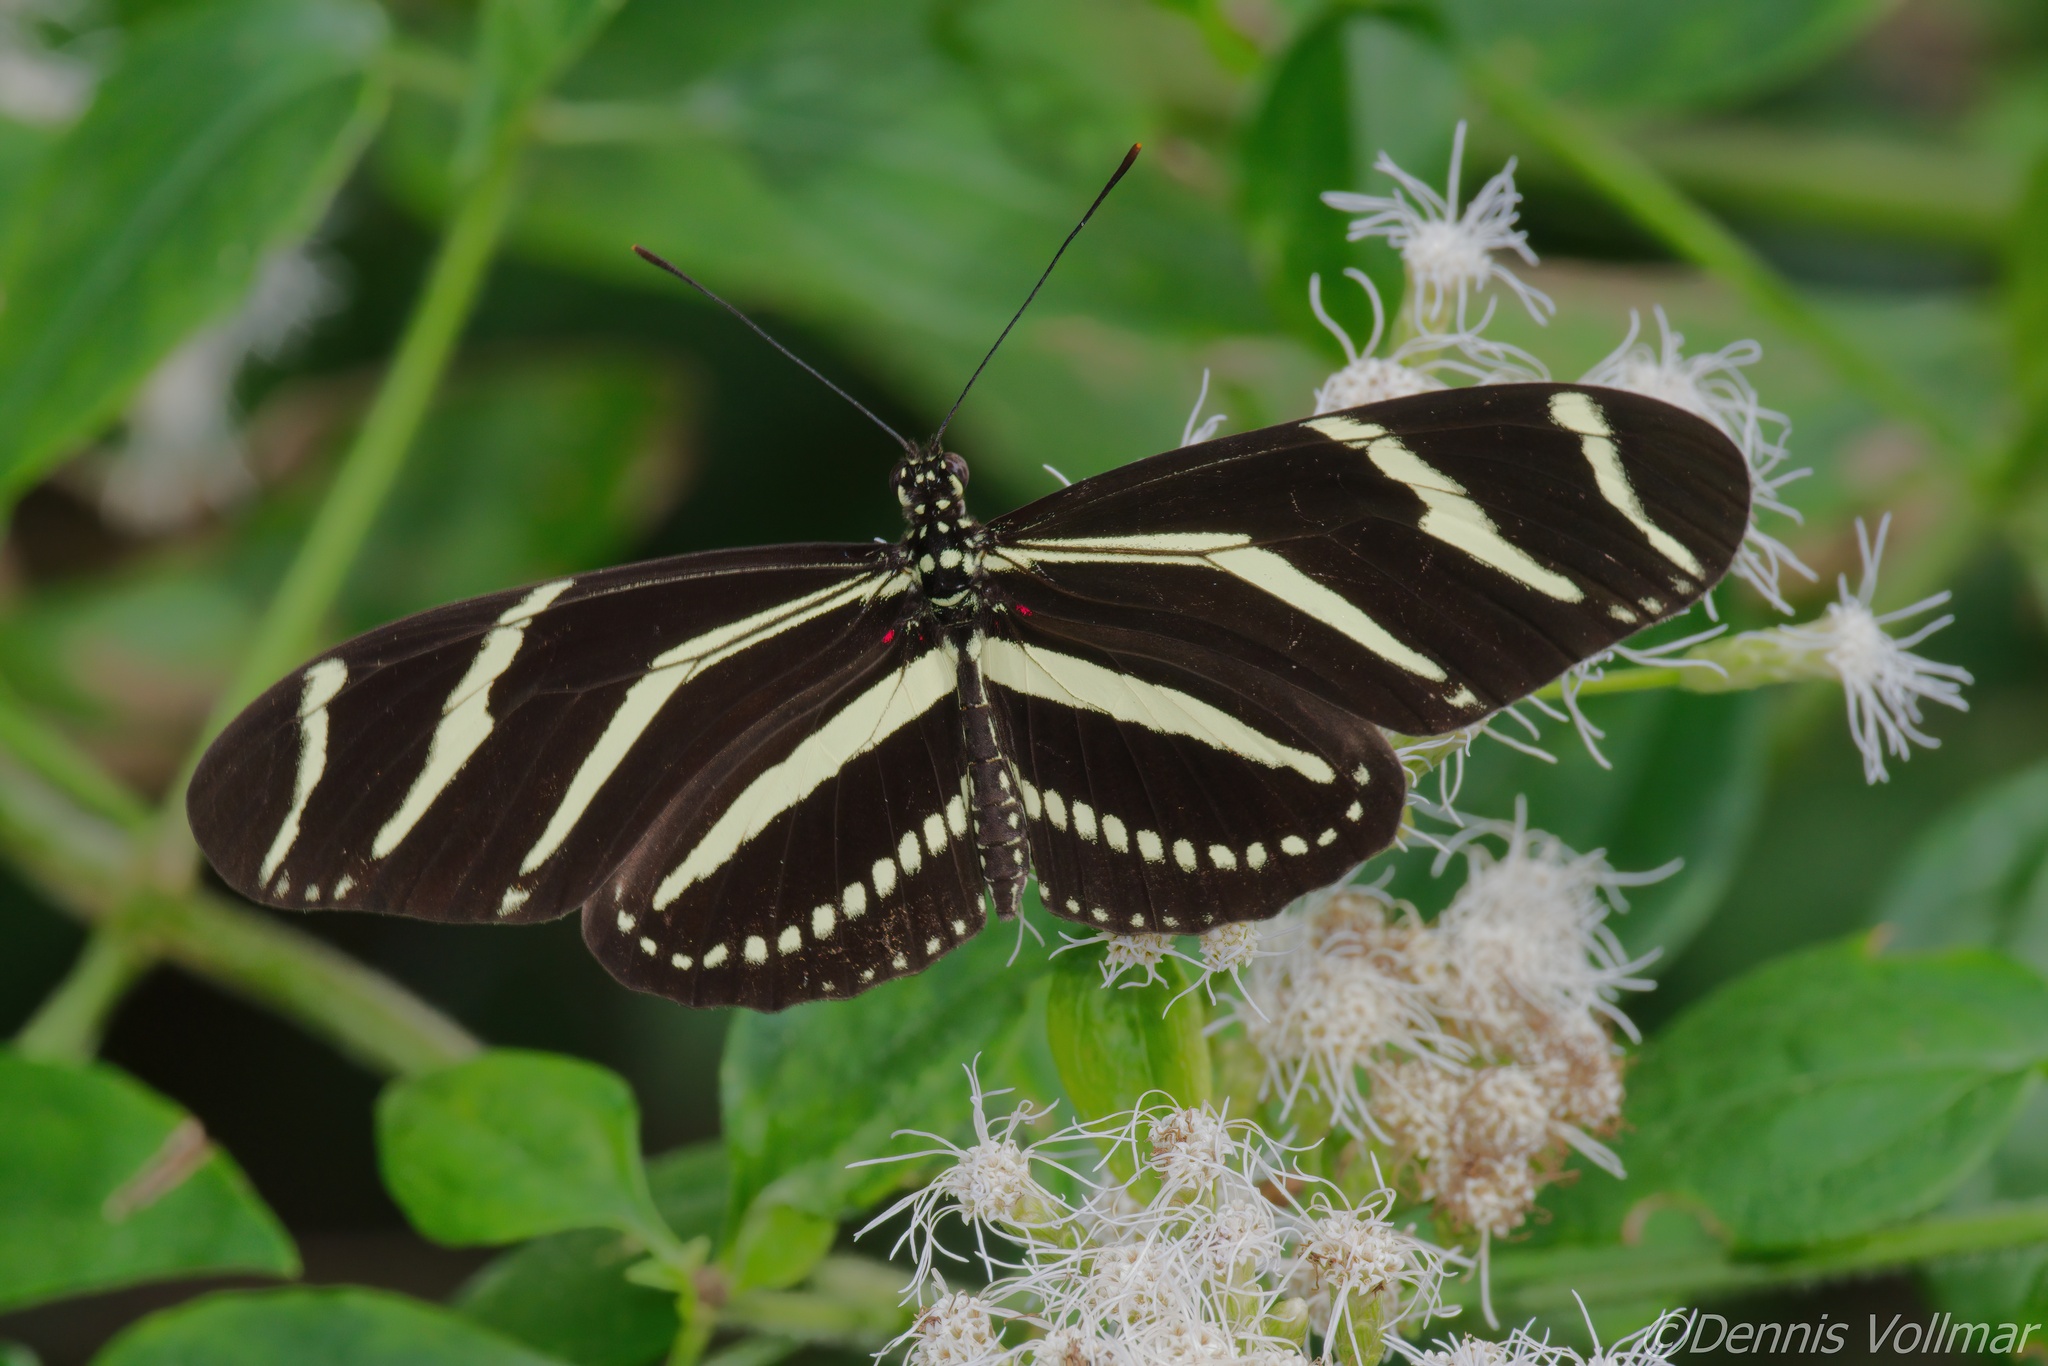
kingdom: Animalia
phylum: Arthropoda
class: Insecta
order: Lepidoptera
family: Nymphalidae
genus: Heliconius
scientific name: Heliconius charithonia
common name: Zebra long wing
